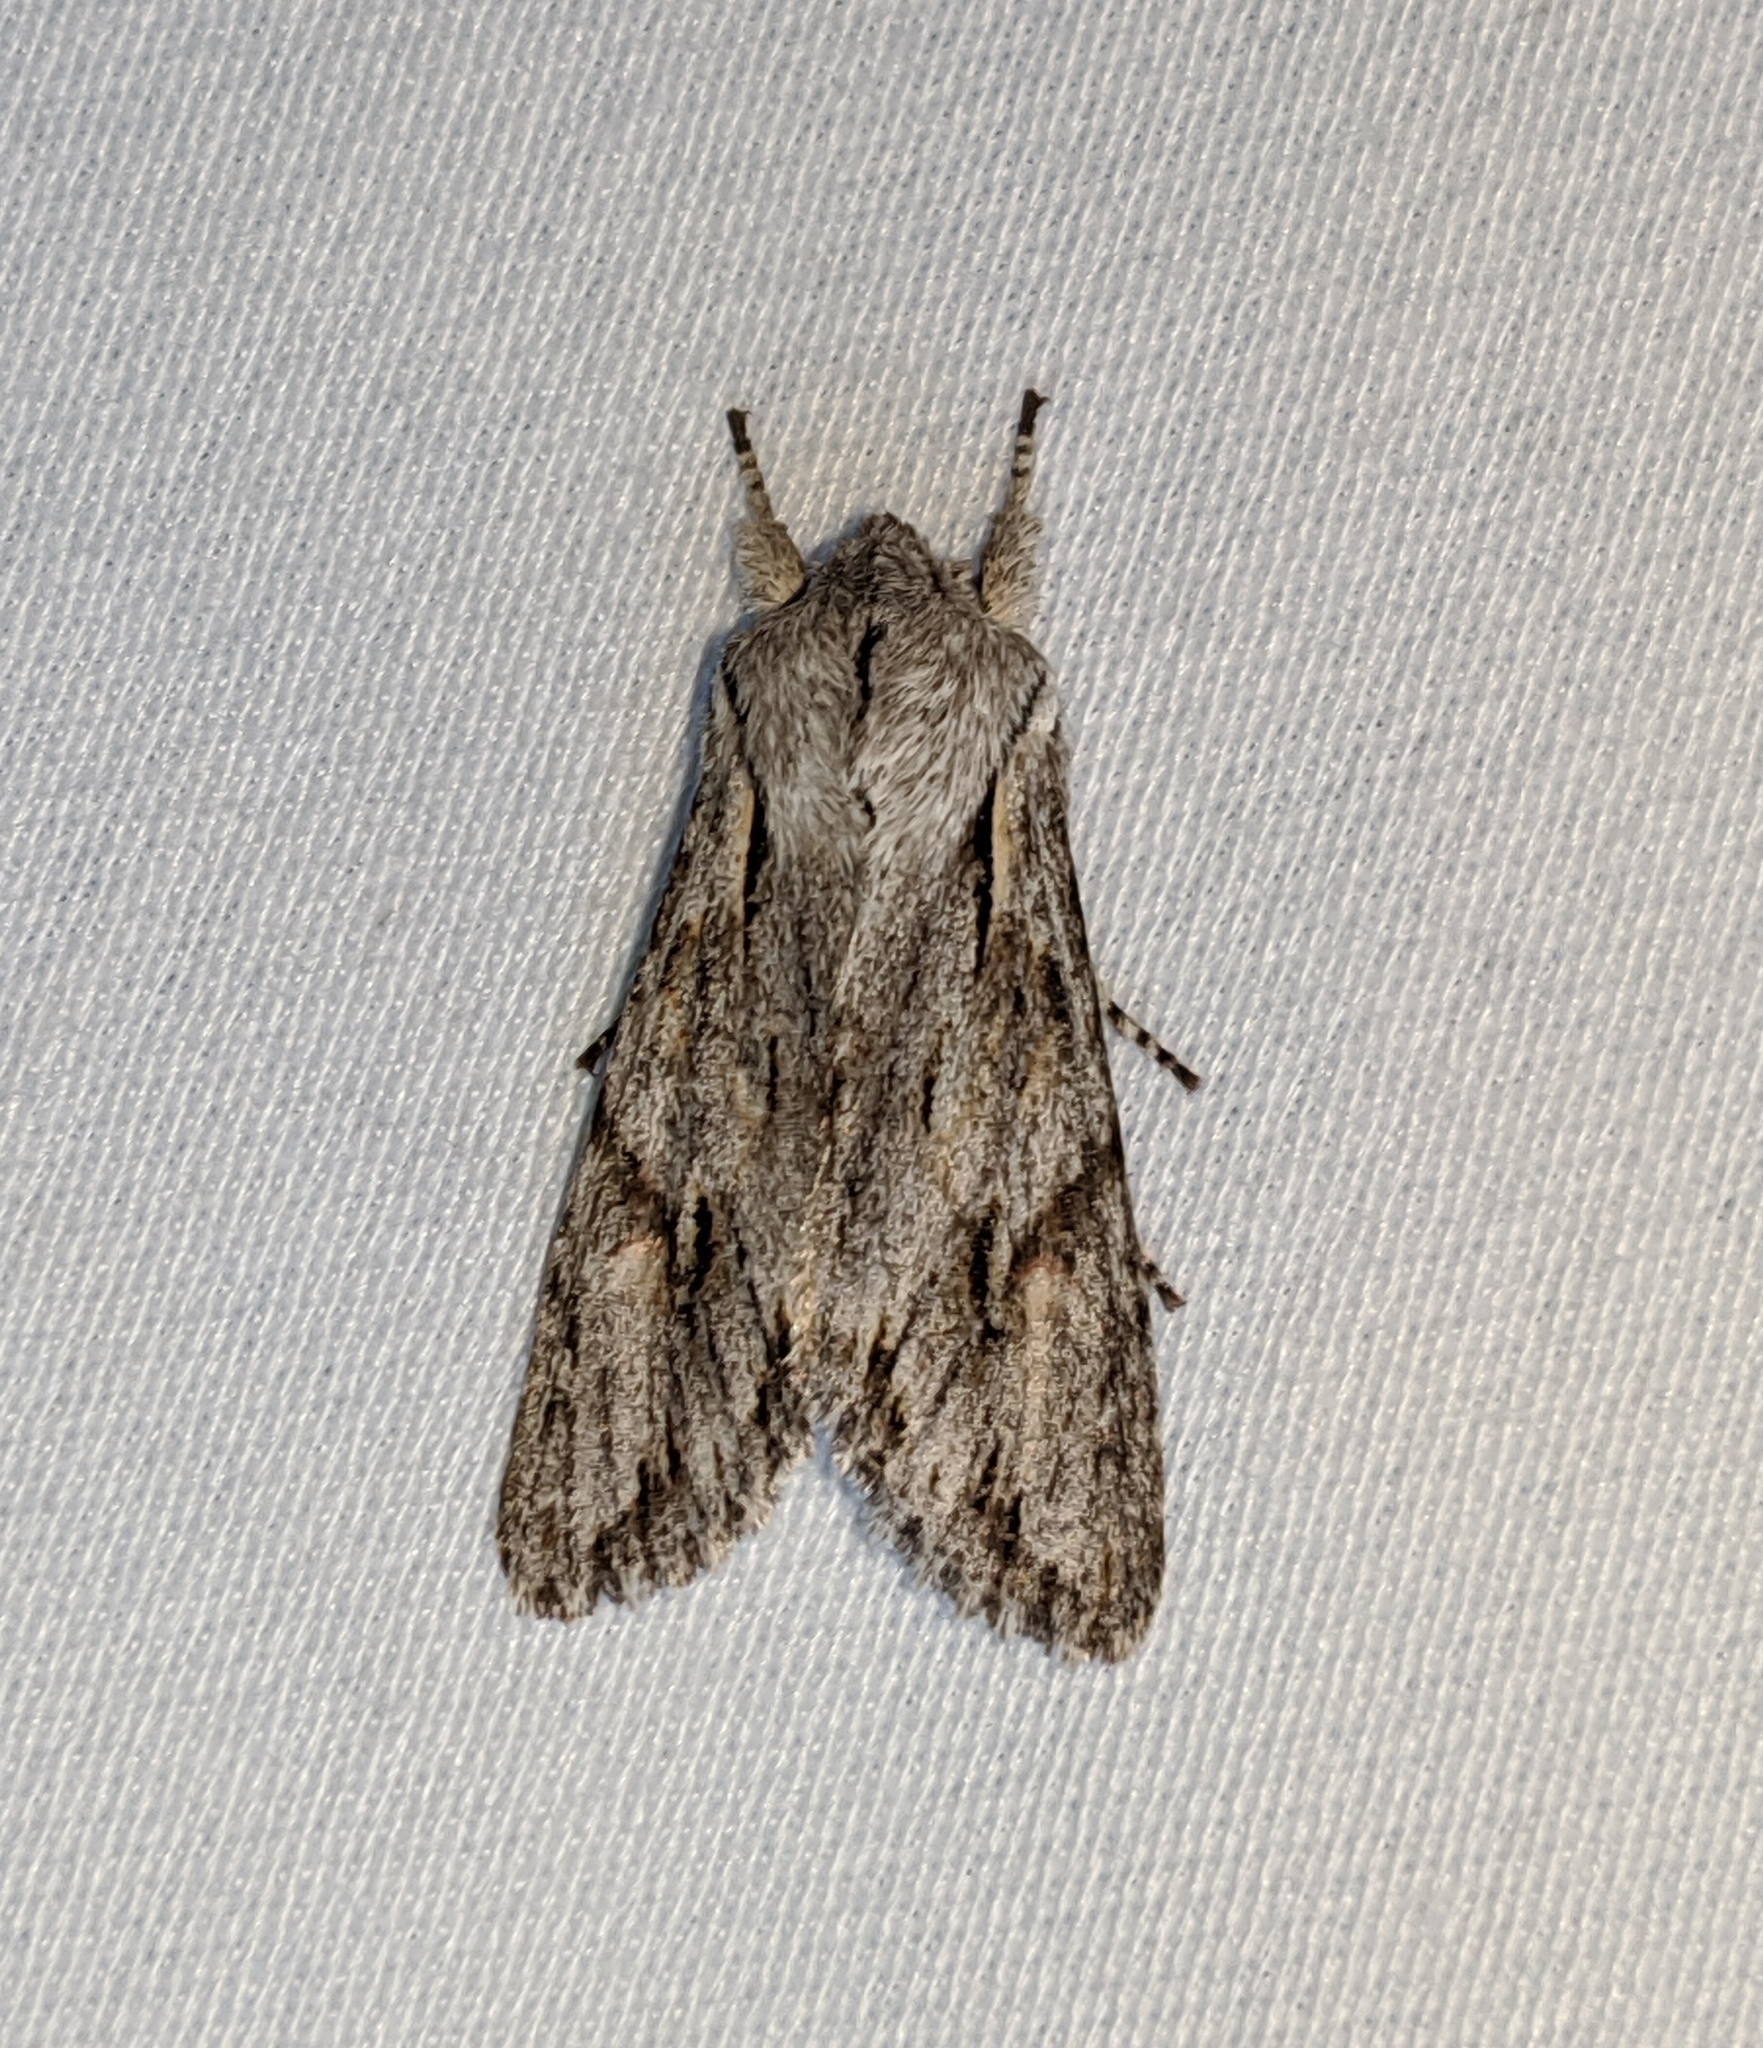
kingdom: Animalia
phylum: Arthropoda
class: Insecta
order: Lepidoptera
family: Noctuidae
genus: Egira
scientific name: Egira crucialis
